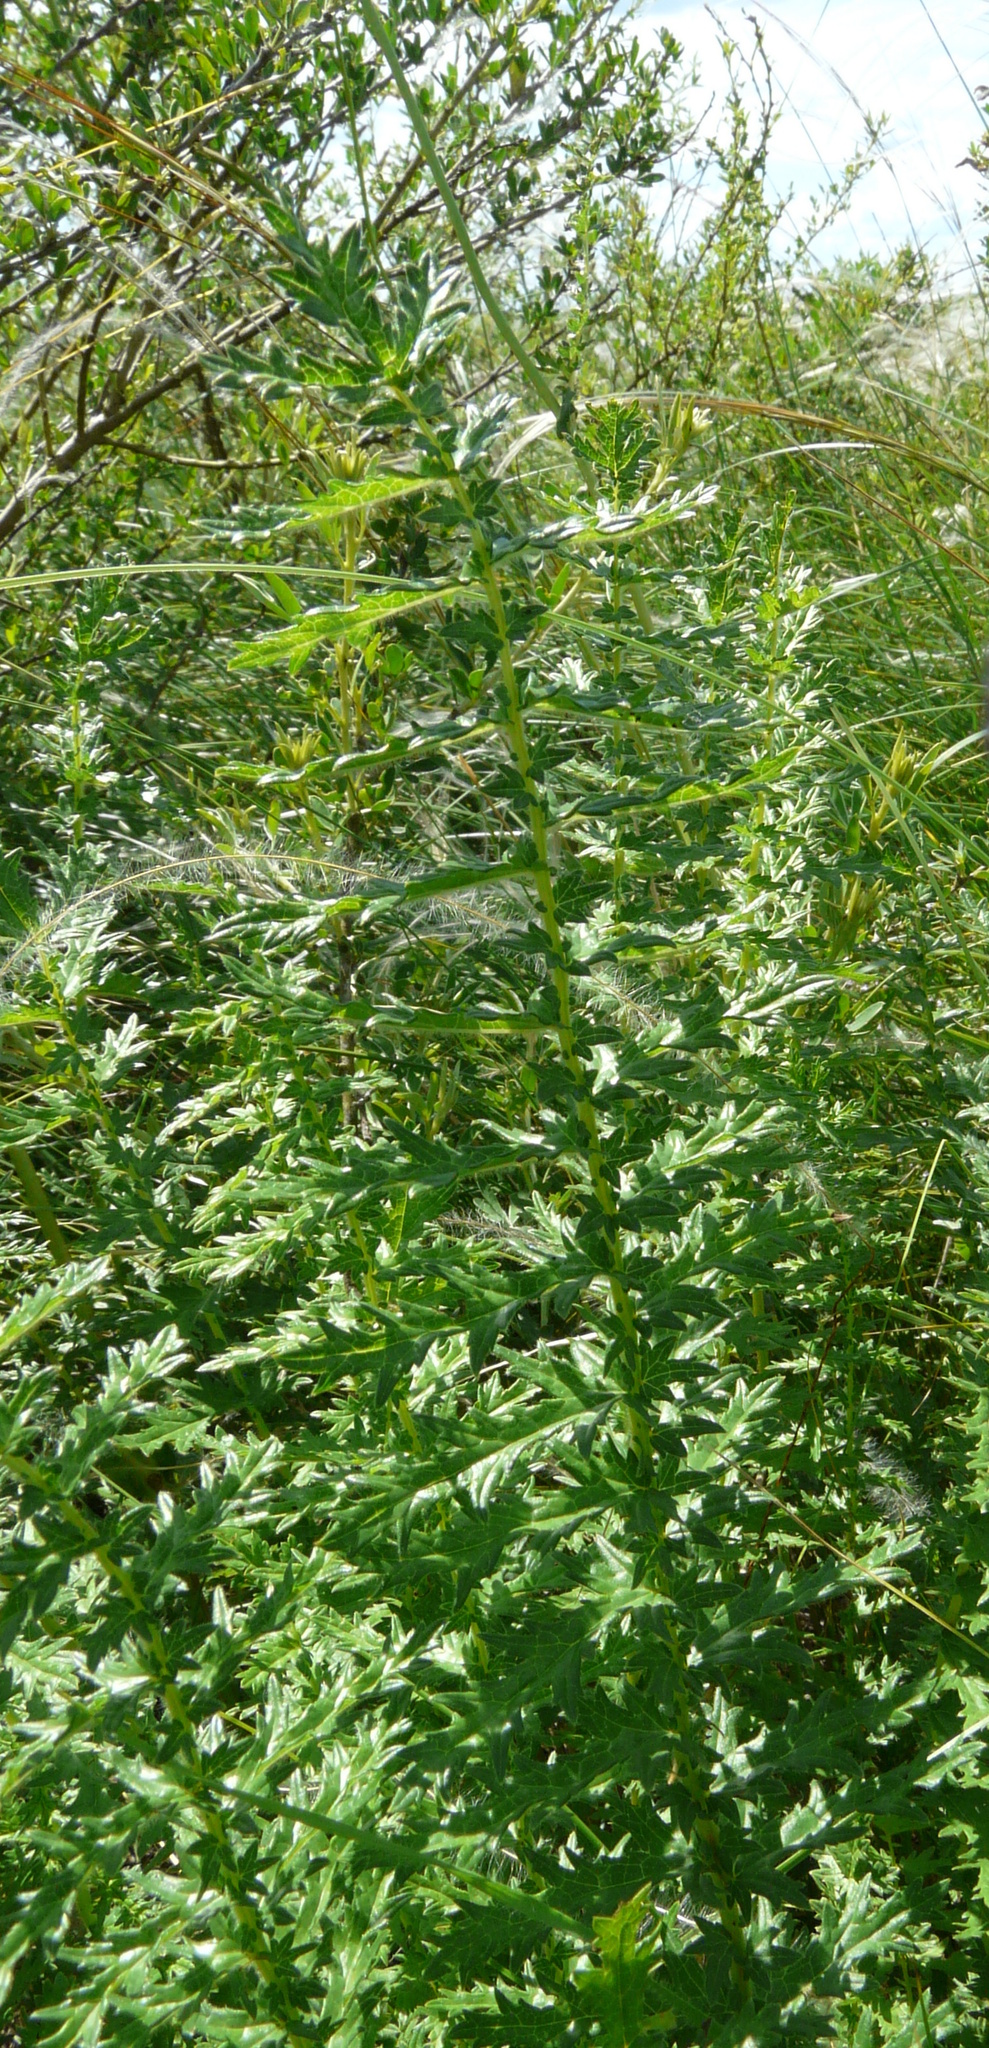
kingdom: Plantae
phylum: Tracheophyta
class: Magnoliopsida
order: Rosales
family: Rosaceae
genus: Filipendula
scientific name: Filipendula vulgaris
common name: Dropwort
